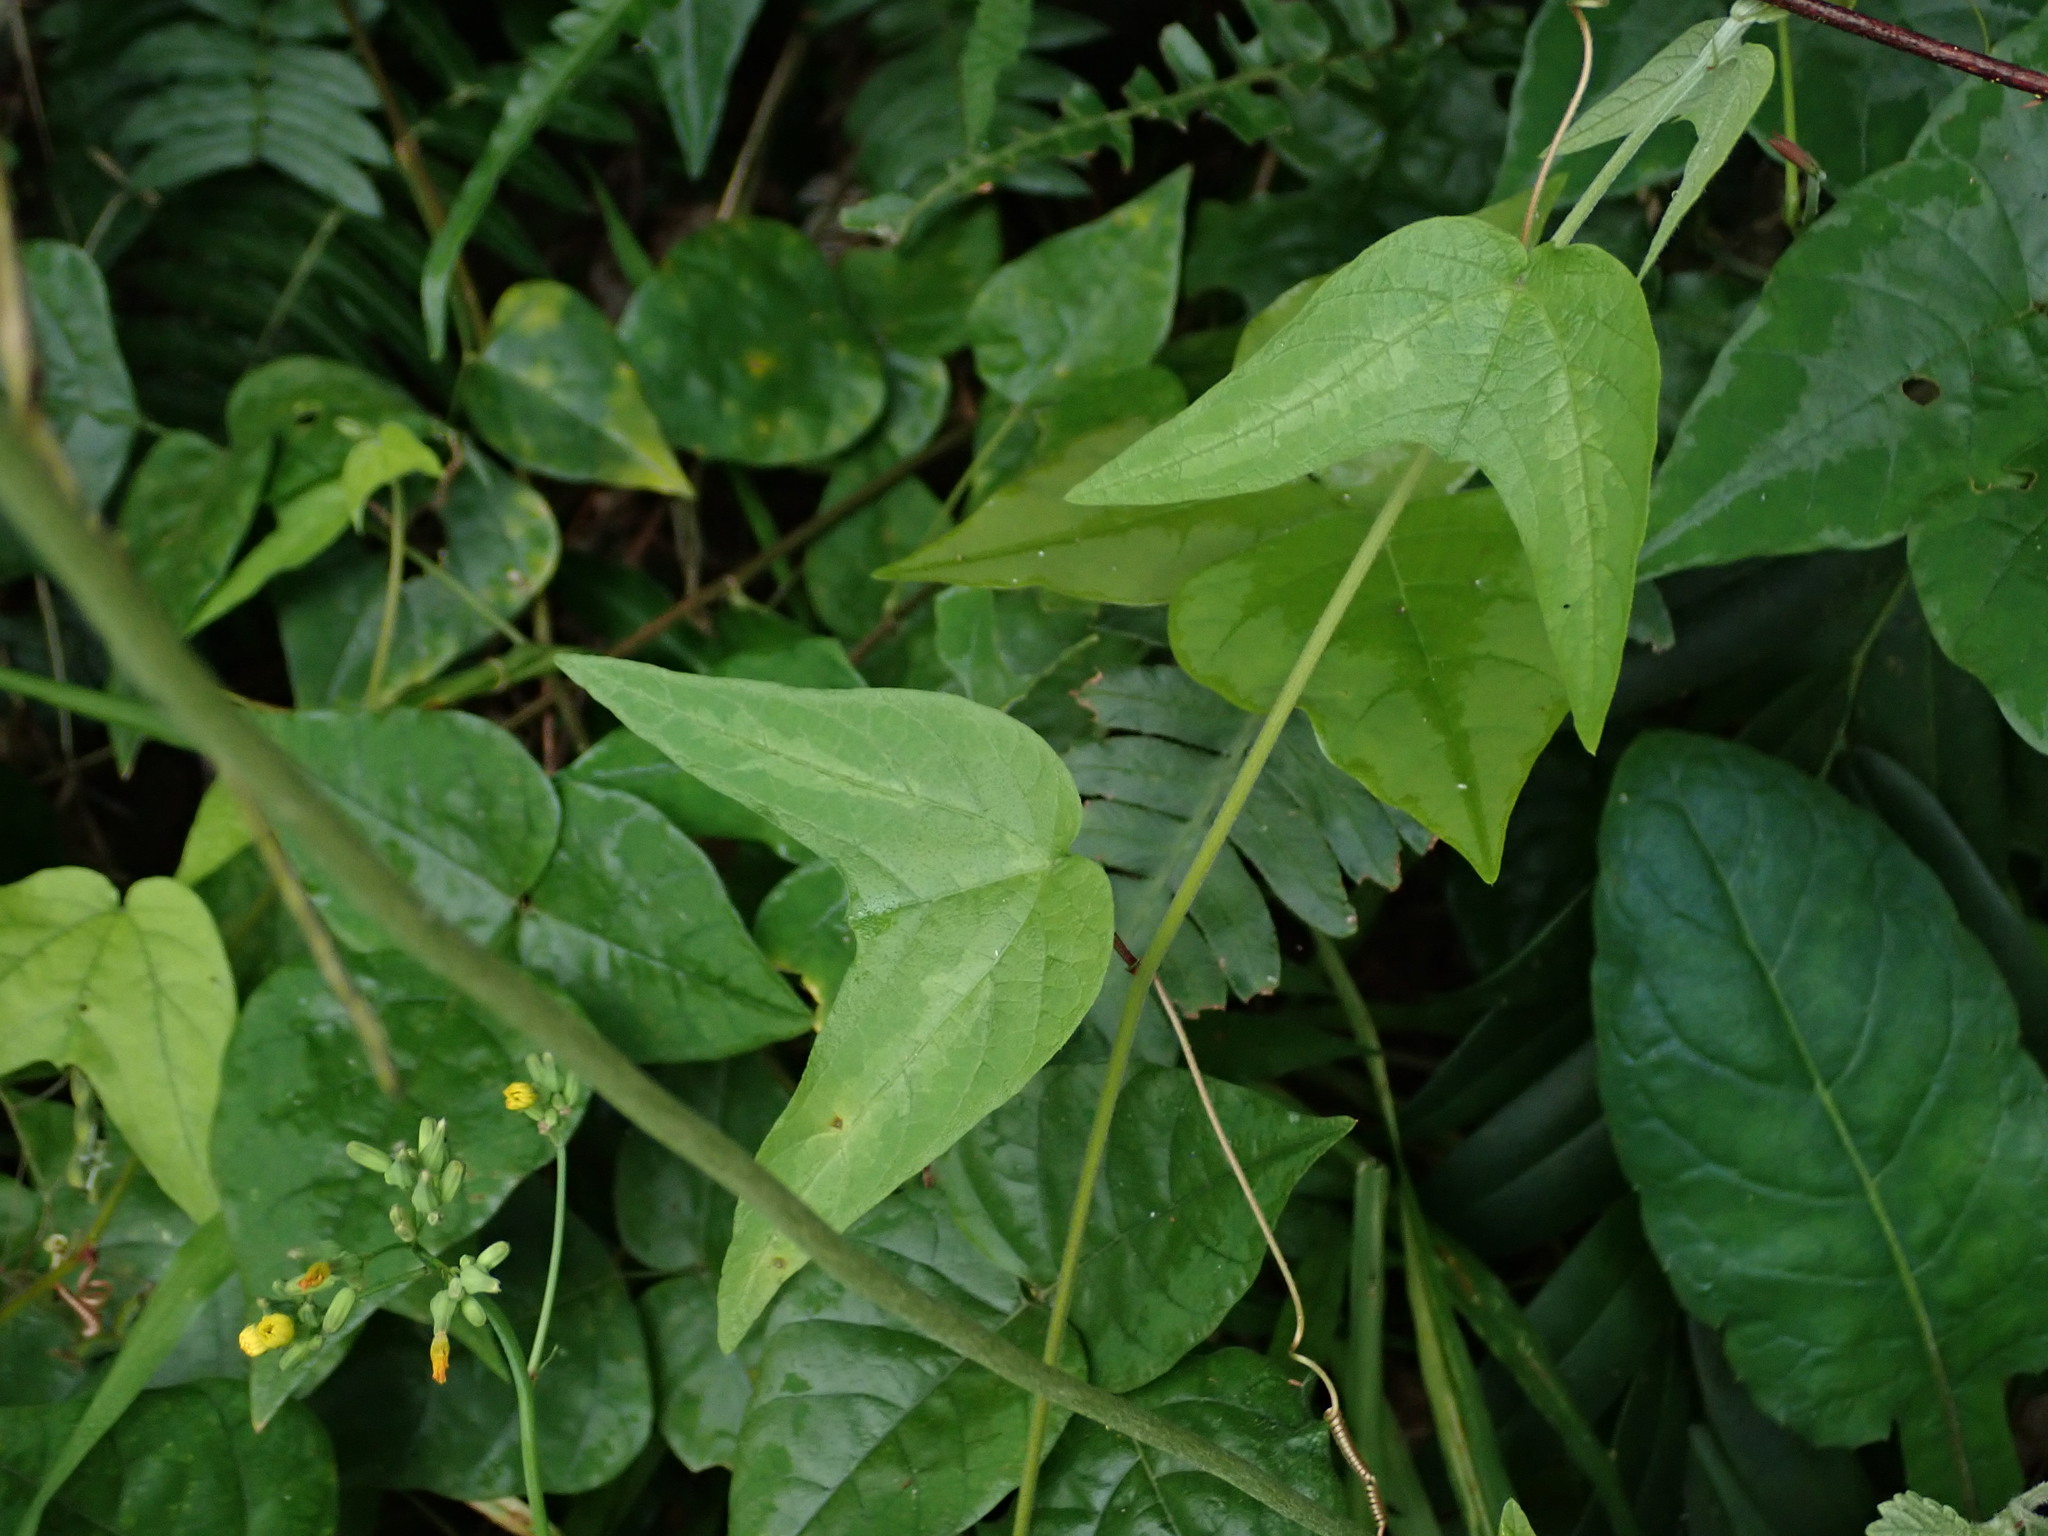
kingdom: Plantae
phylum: Tracheophyta
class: Magnoliopsida
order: Malpighiales
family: Passifloraceae
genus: Passiflora
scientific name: Passiflora rubra
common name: Snakeberry vine
